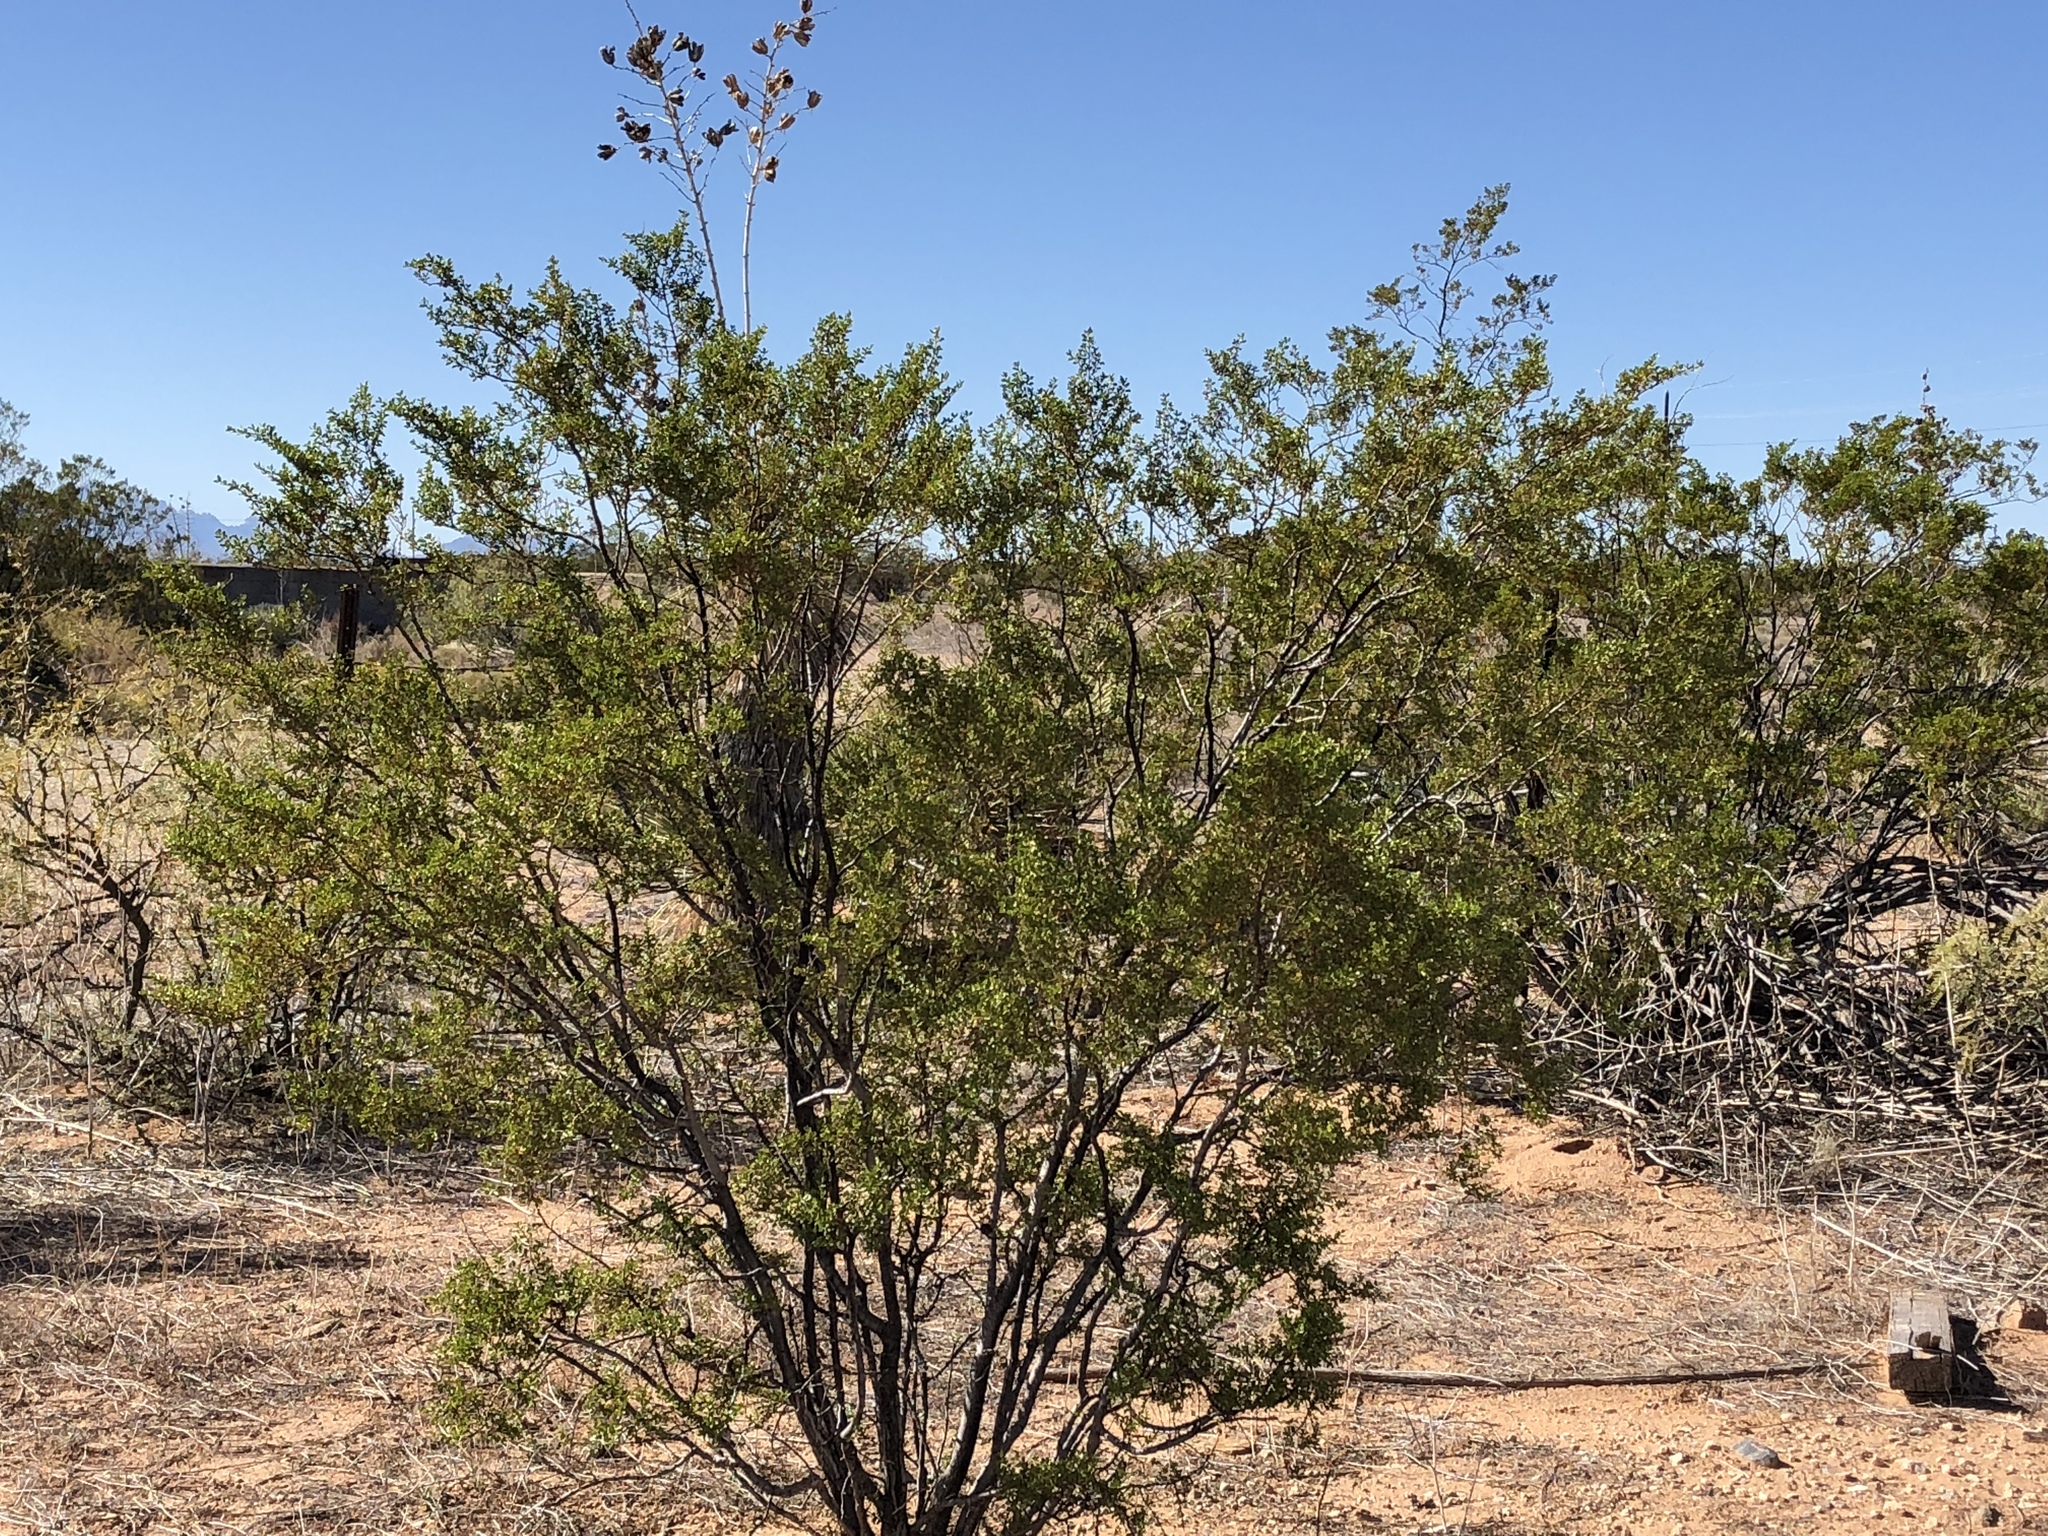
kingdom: Plantae
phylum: Tracheophyta
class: Magnoliopsida
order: Zygophyllales
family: Zygophyllaceae
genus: Larrea
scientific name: Larrea tridentata
